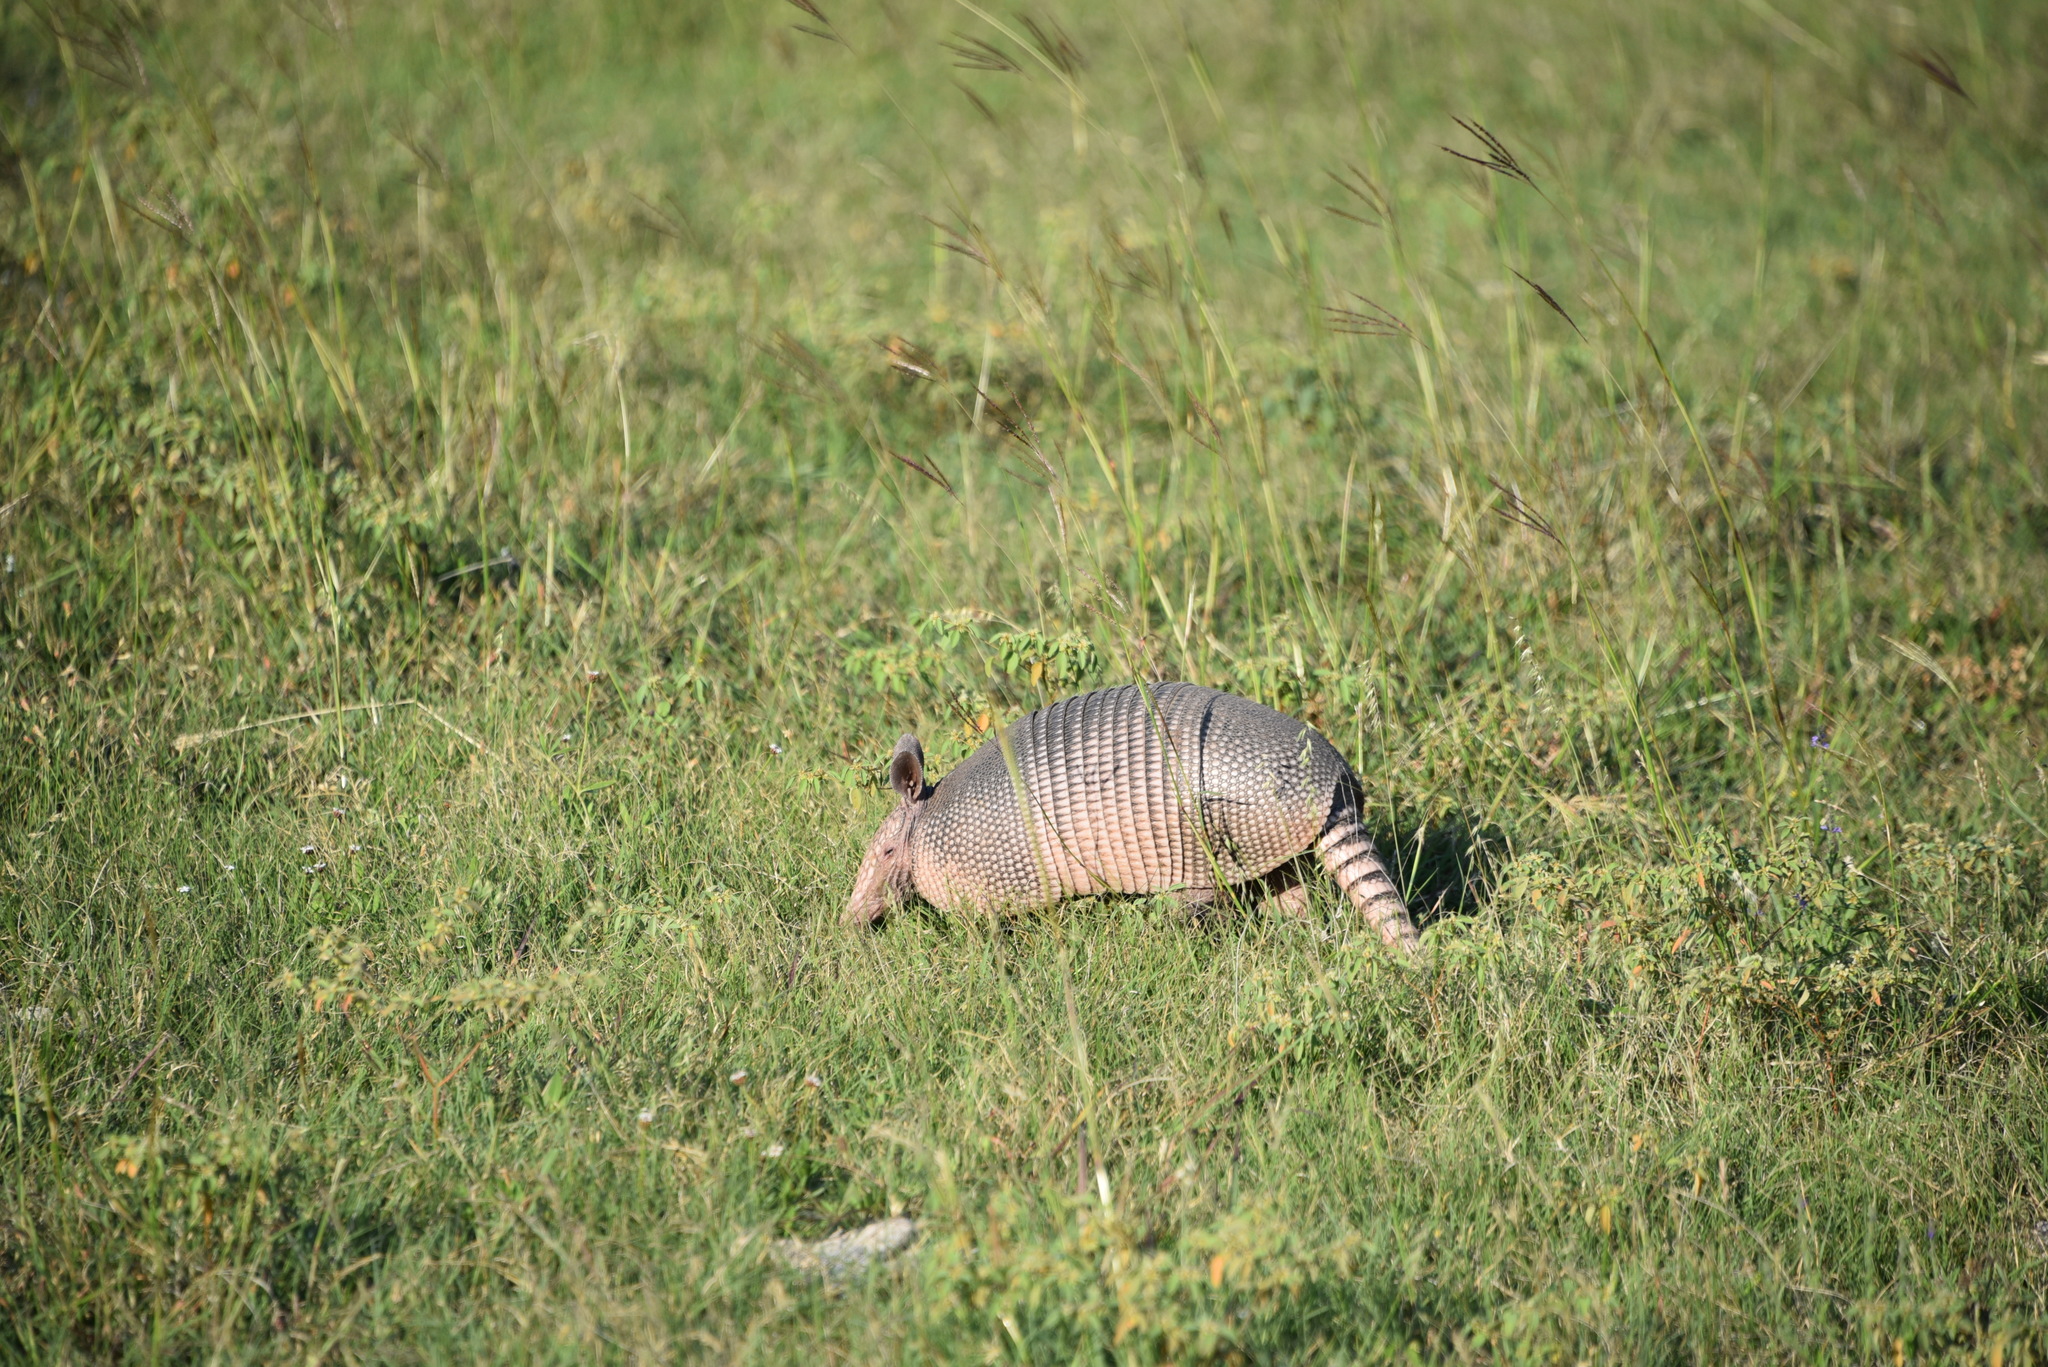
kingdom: Animalia
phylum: Chordata
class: Mammalia
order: Cingulata
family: Dasypodidae
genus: Dasypus
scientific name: Dasypus novemcinctus
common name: Nine-banded armadillo
